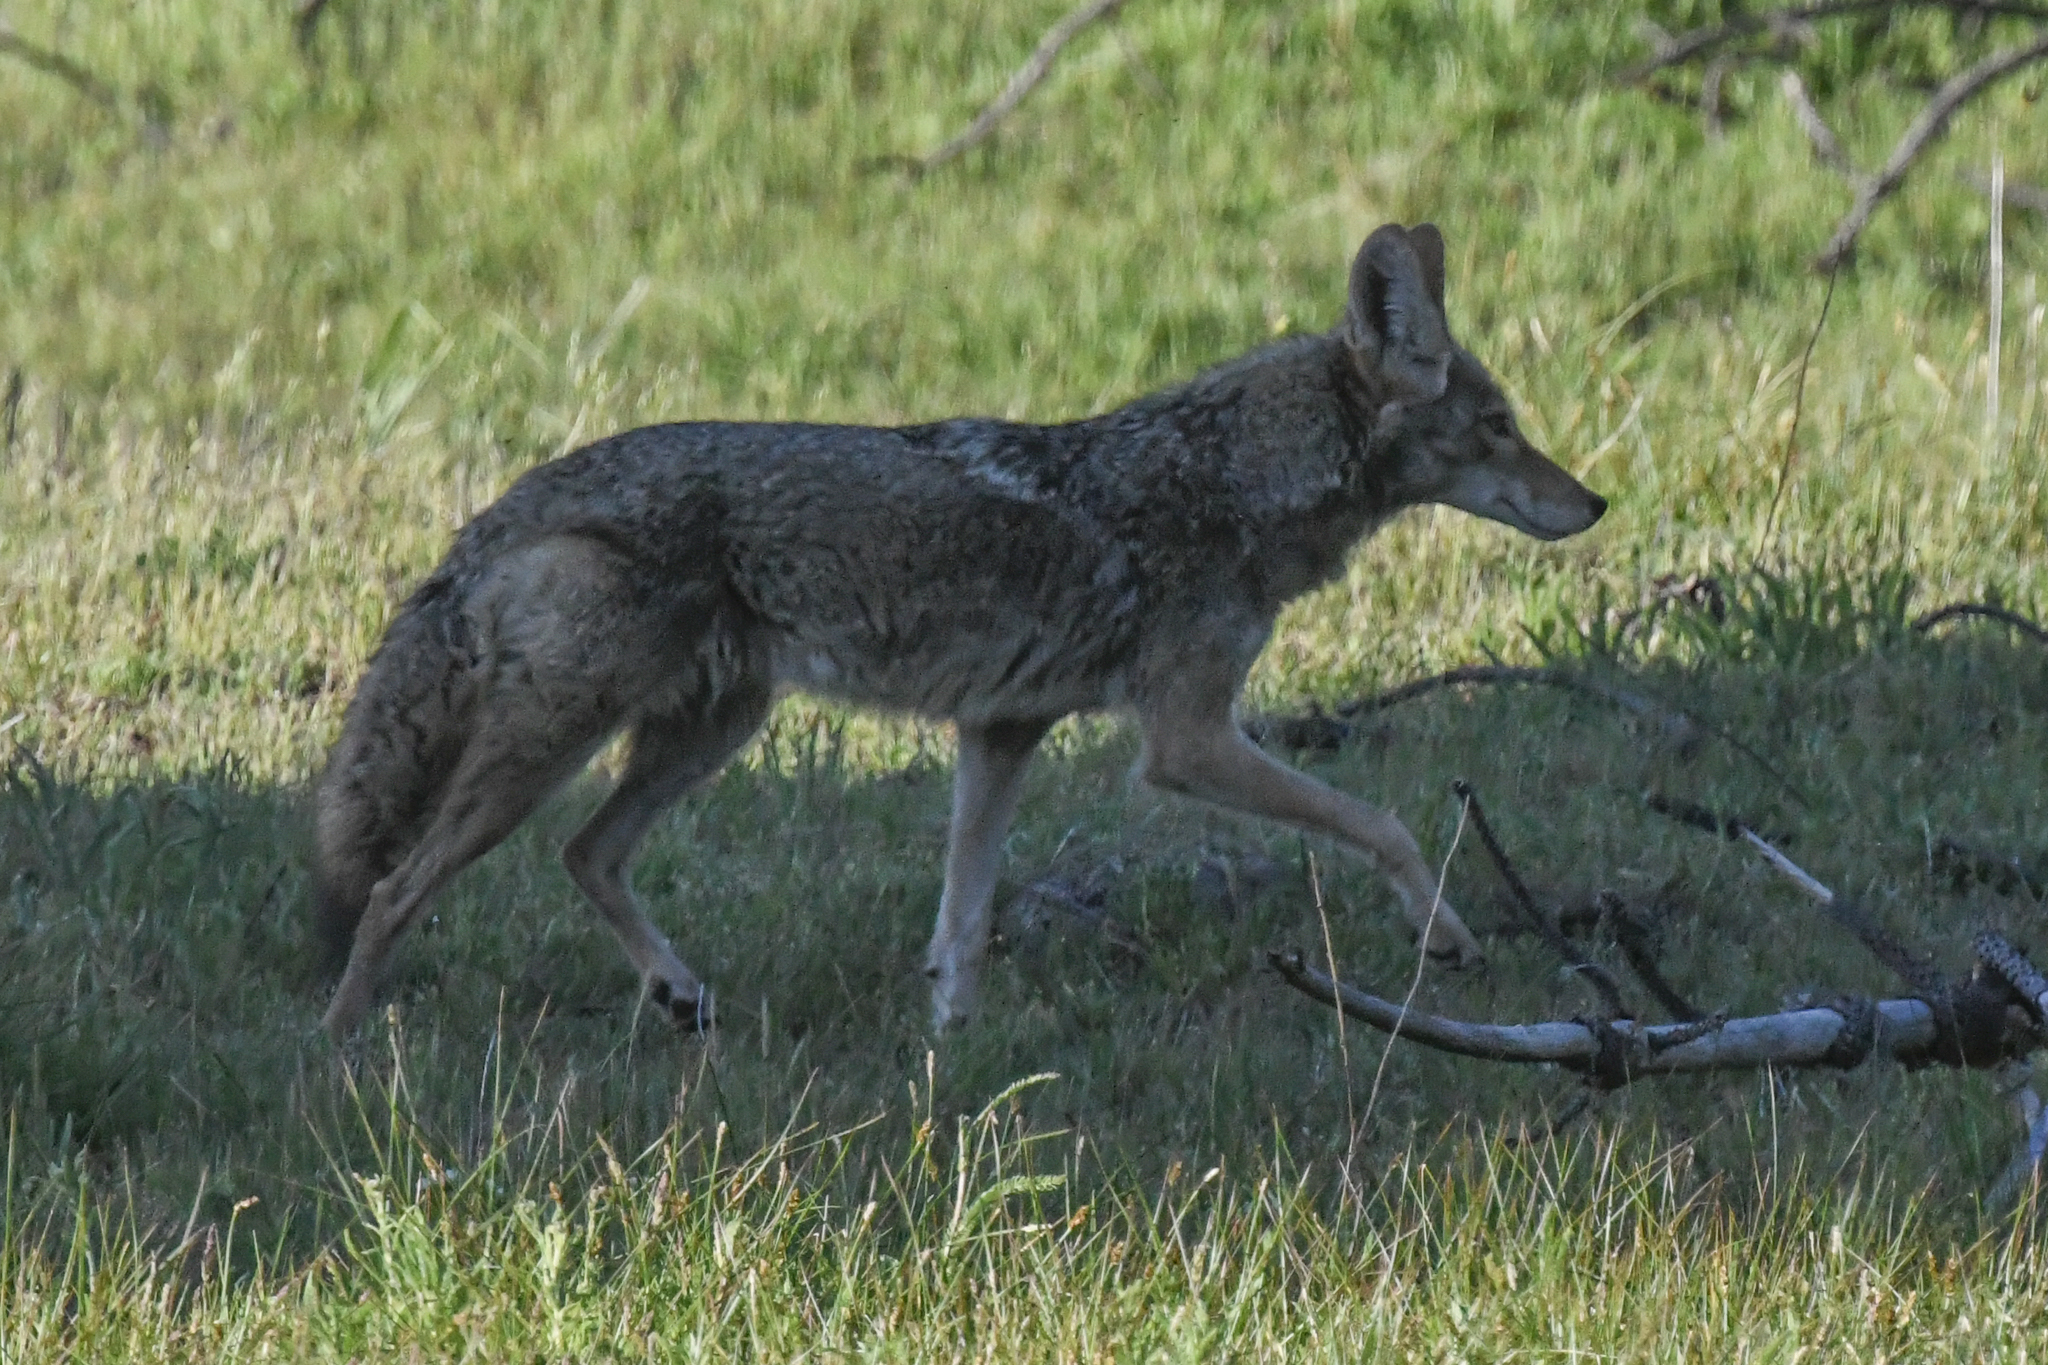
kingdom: Animalia
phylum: Chordata
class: Mammalia
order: Carnivora
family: Canidae
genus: Canis
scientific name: Canis latrans
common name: Coyote
